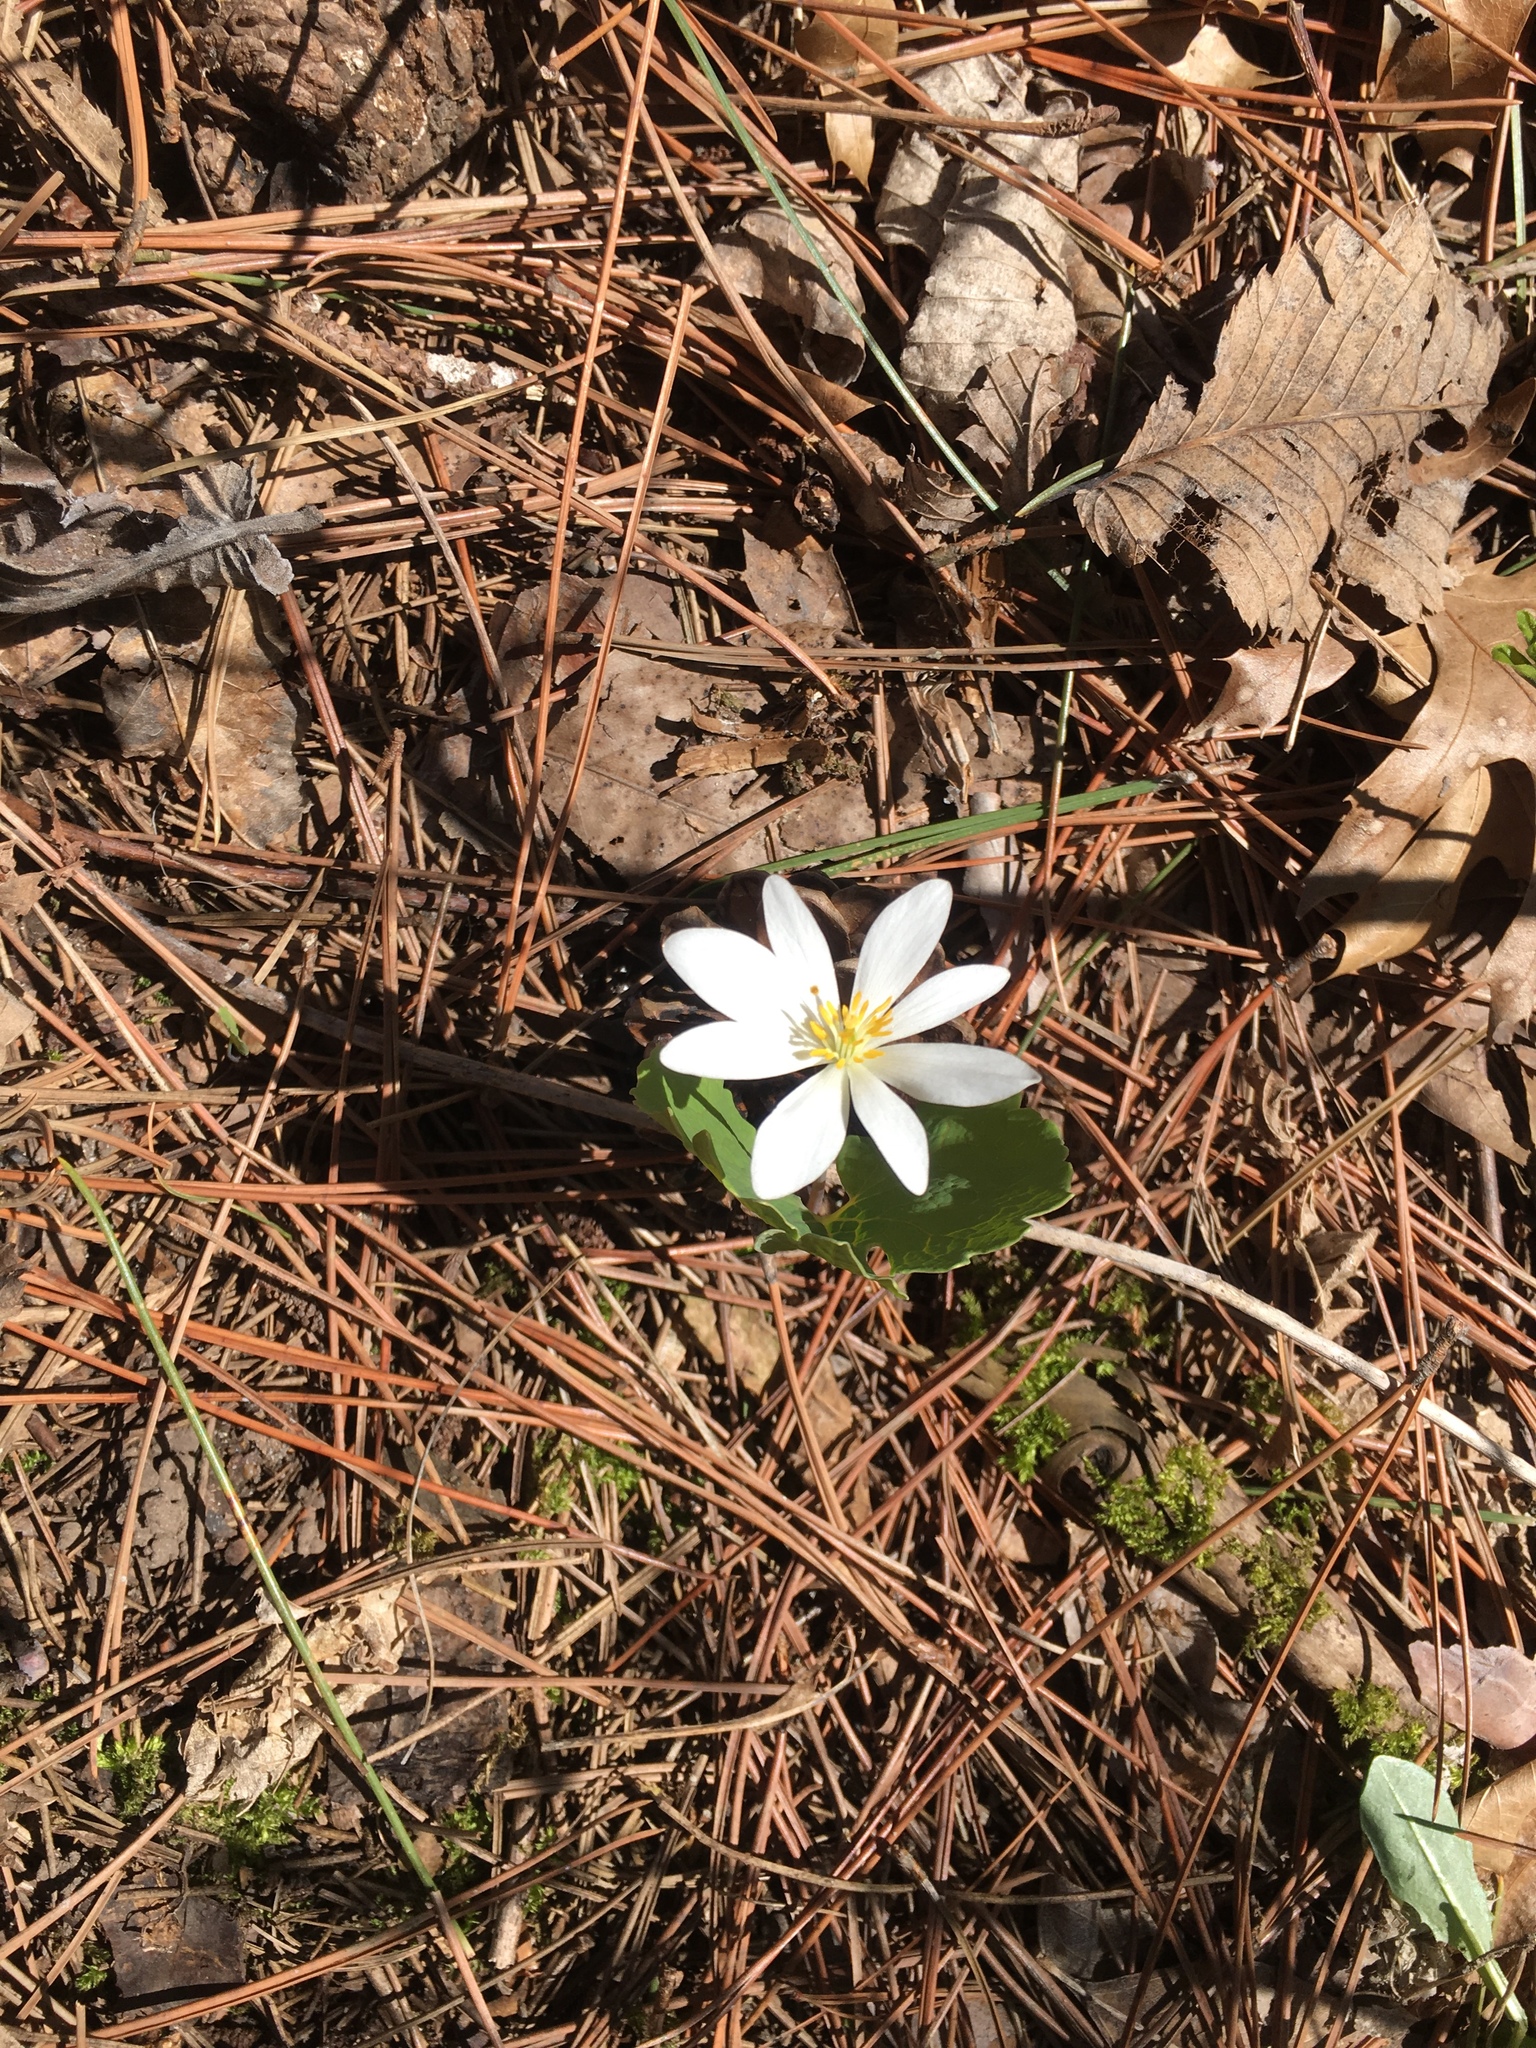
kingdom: Plantae
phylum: Tracheophyta
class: Magnoliopsida
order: Ranunculales
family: Papaveraceae
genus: Sanguinaria
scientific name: Sanguinaria canadensis
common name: Bloodroot
